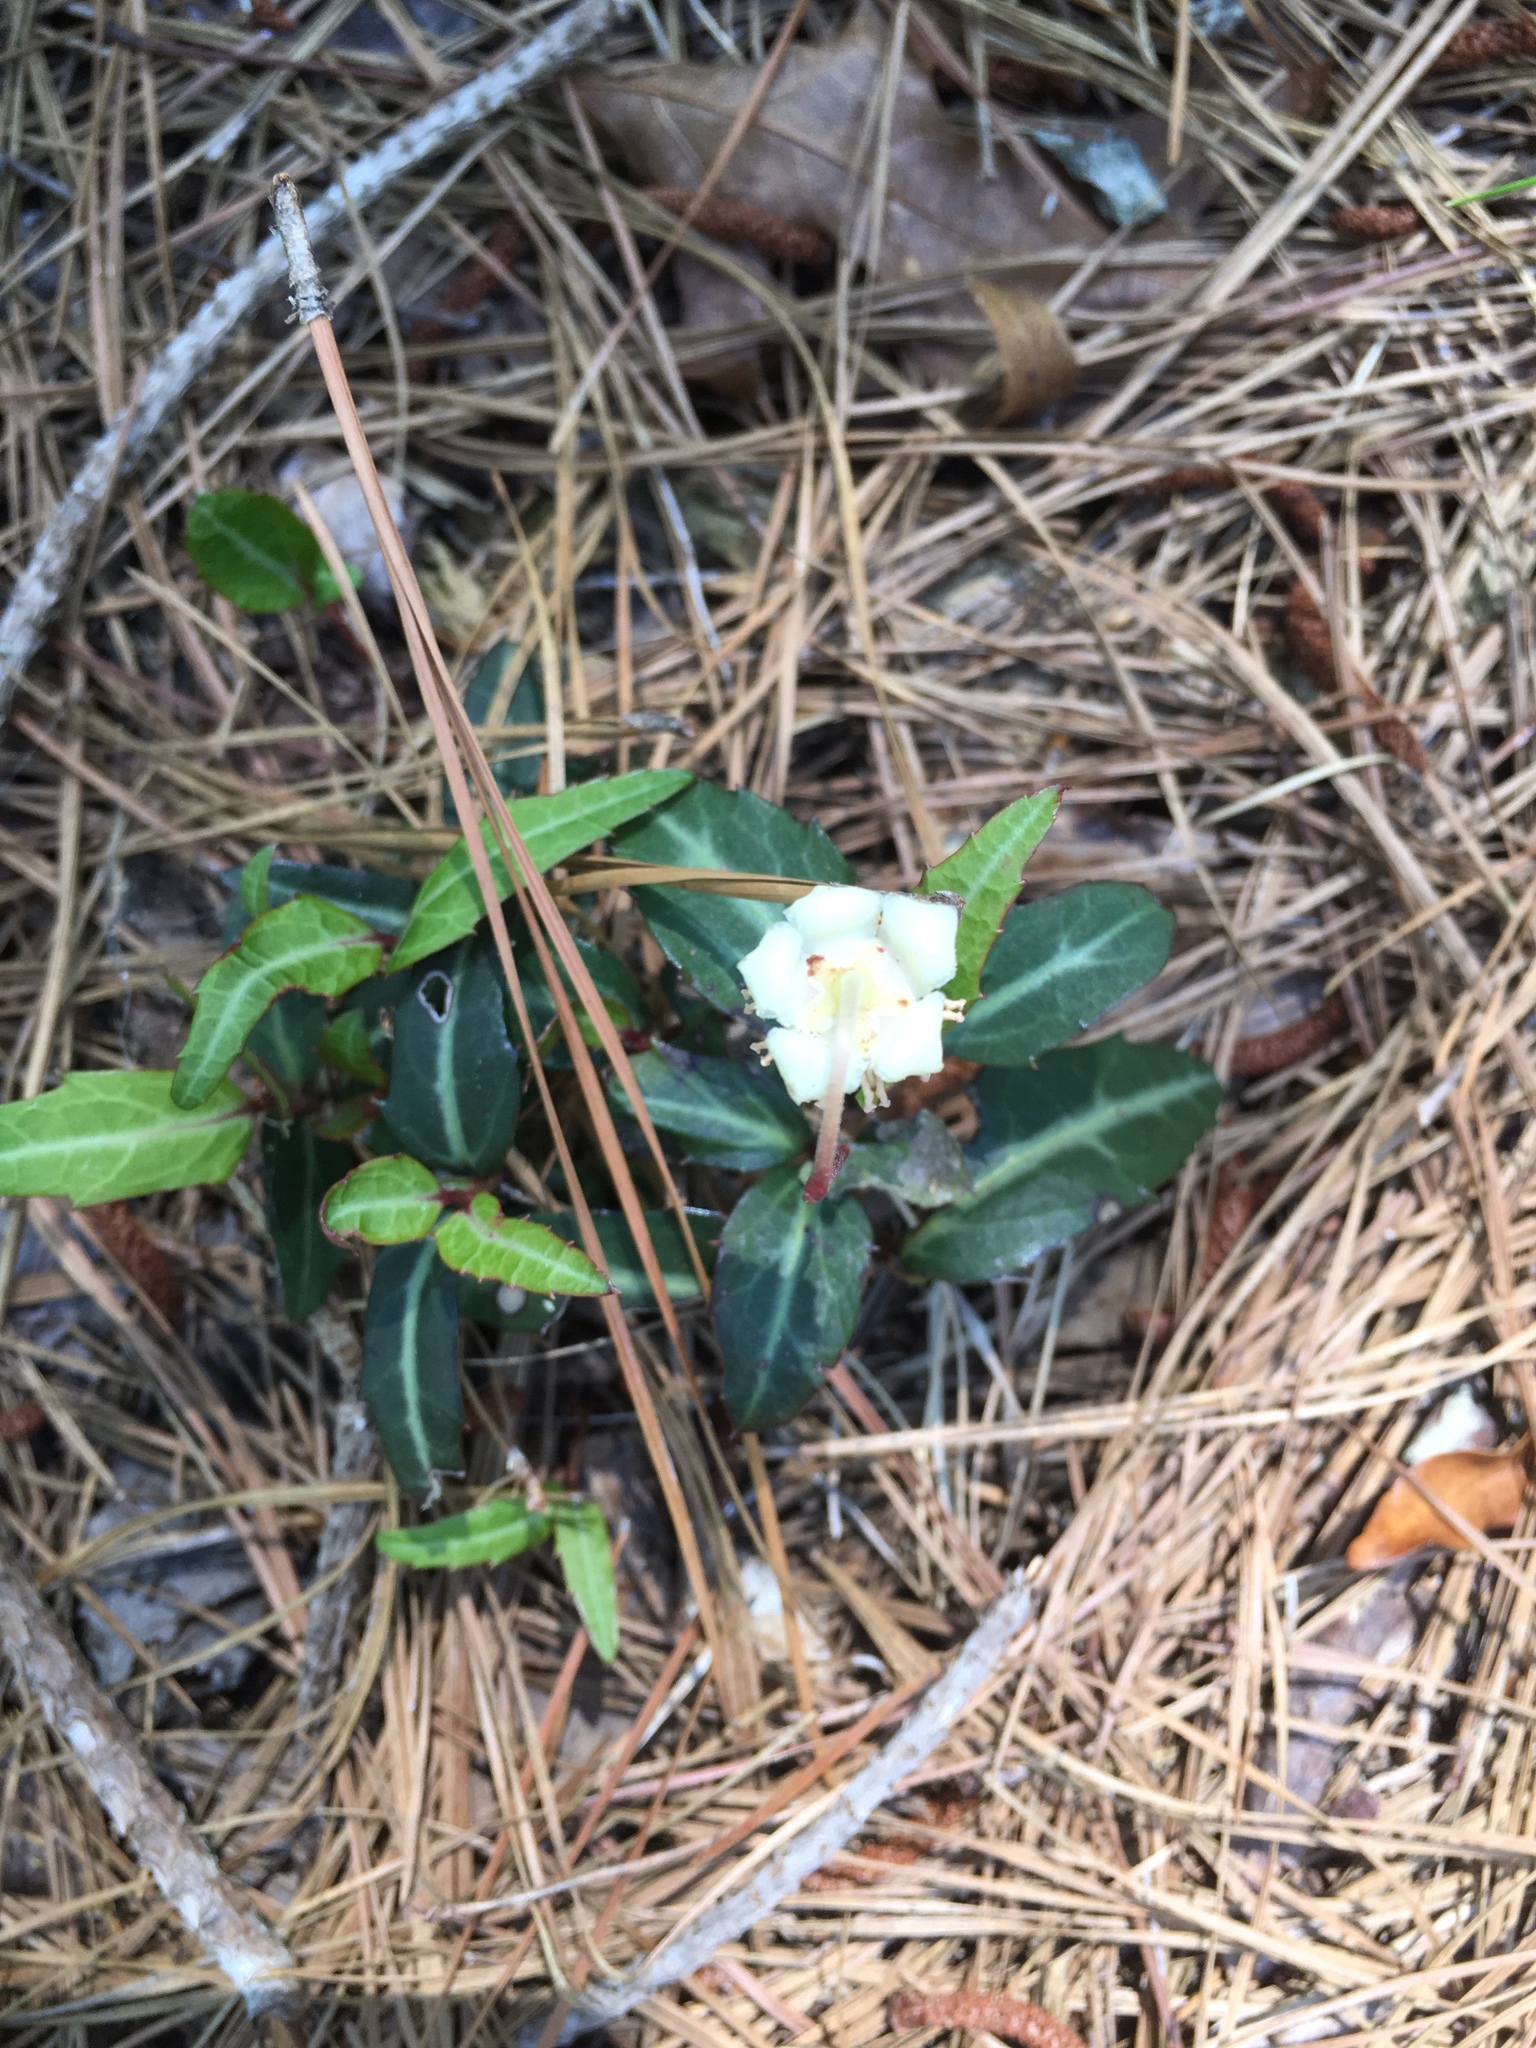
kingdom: Plantae
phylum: Tracheophyta
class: Magnoliopsida
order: Ericales
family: Ericaceae
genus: Chimaphila
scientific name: Chimaphila maculata
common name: Spotted pipsissewa
